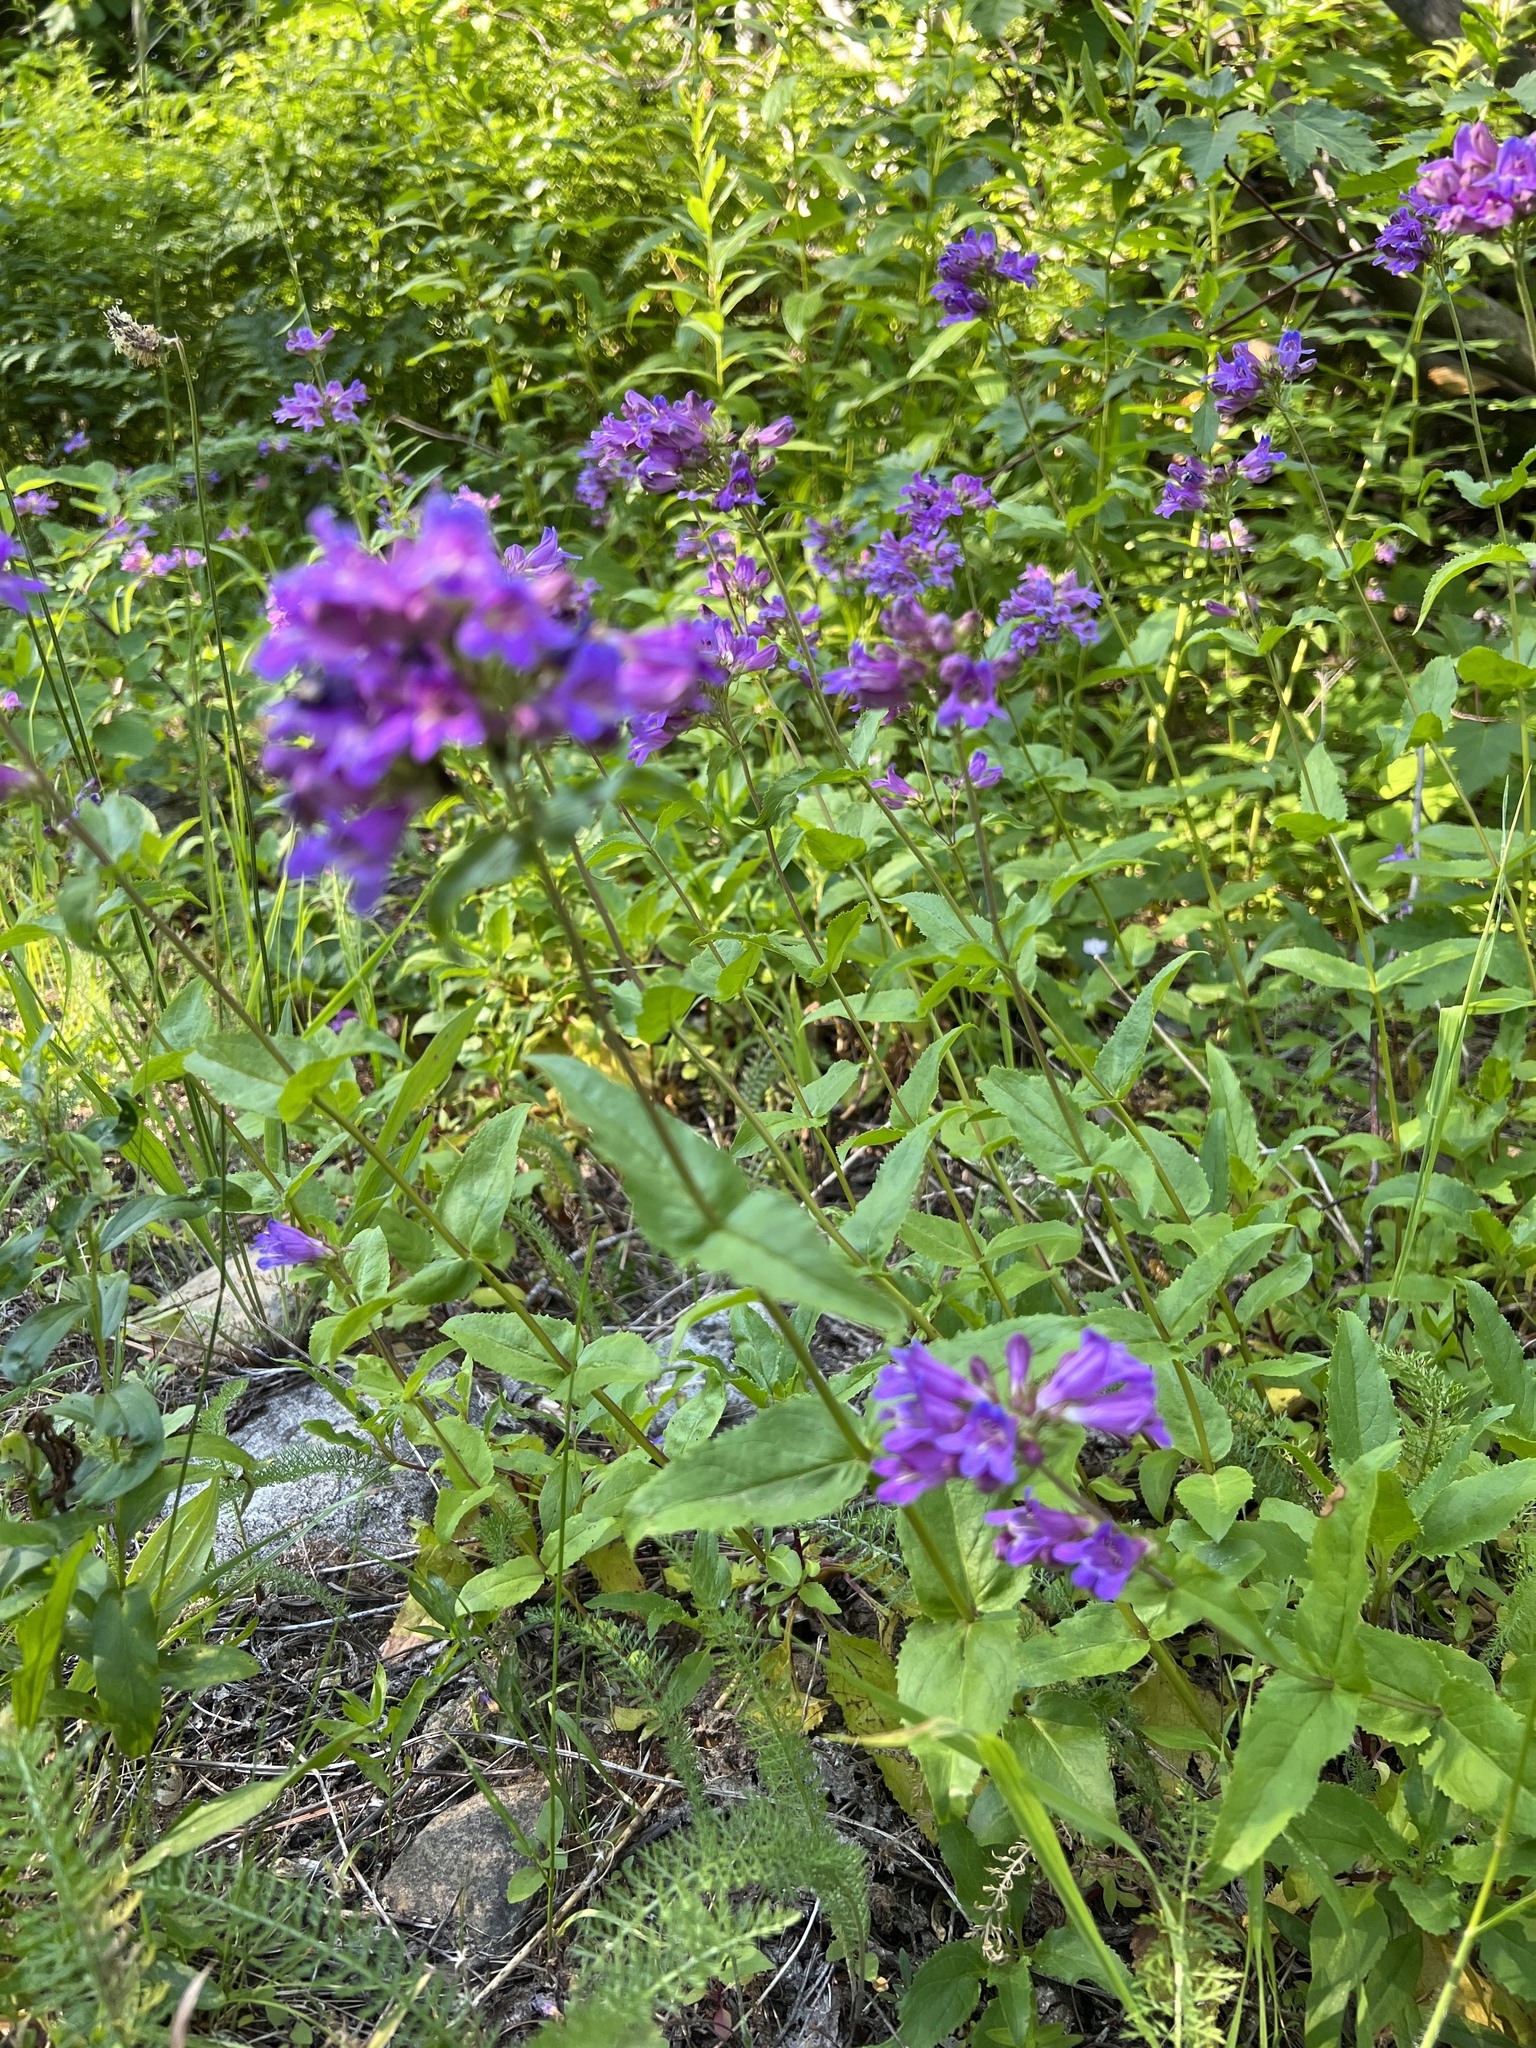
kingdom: Plantae
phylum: Tracheophyta
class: Magnoliopsida
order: Lamiales
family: Plantaginaceae
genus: Penstemon
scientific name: Penstemon serrulatus
